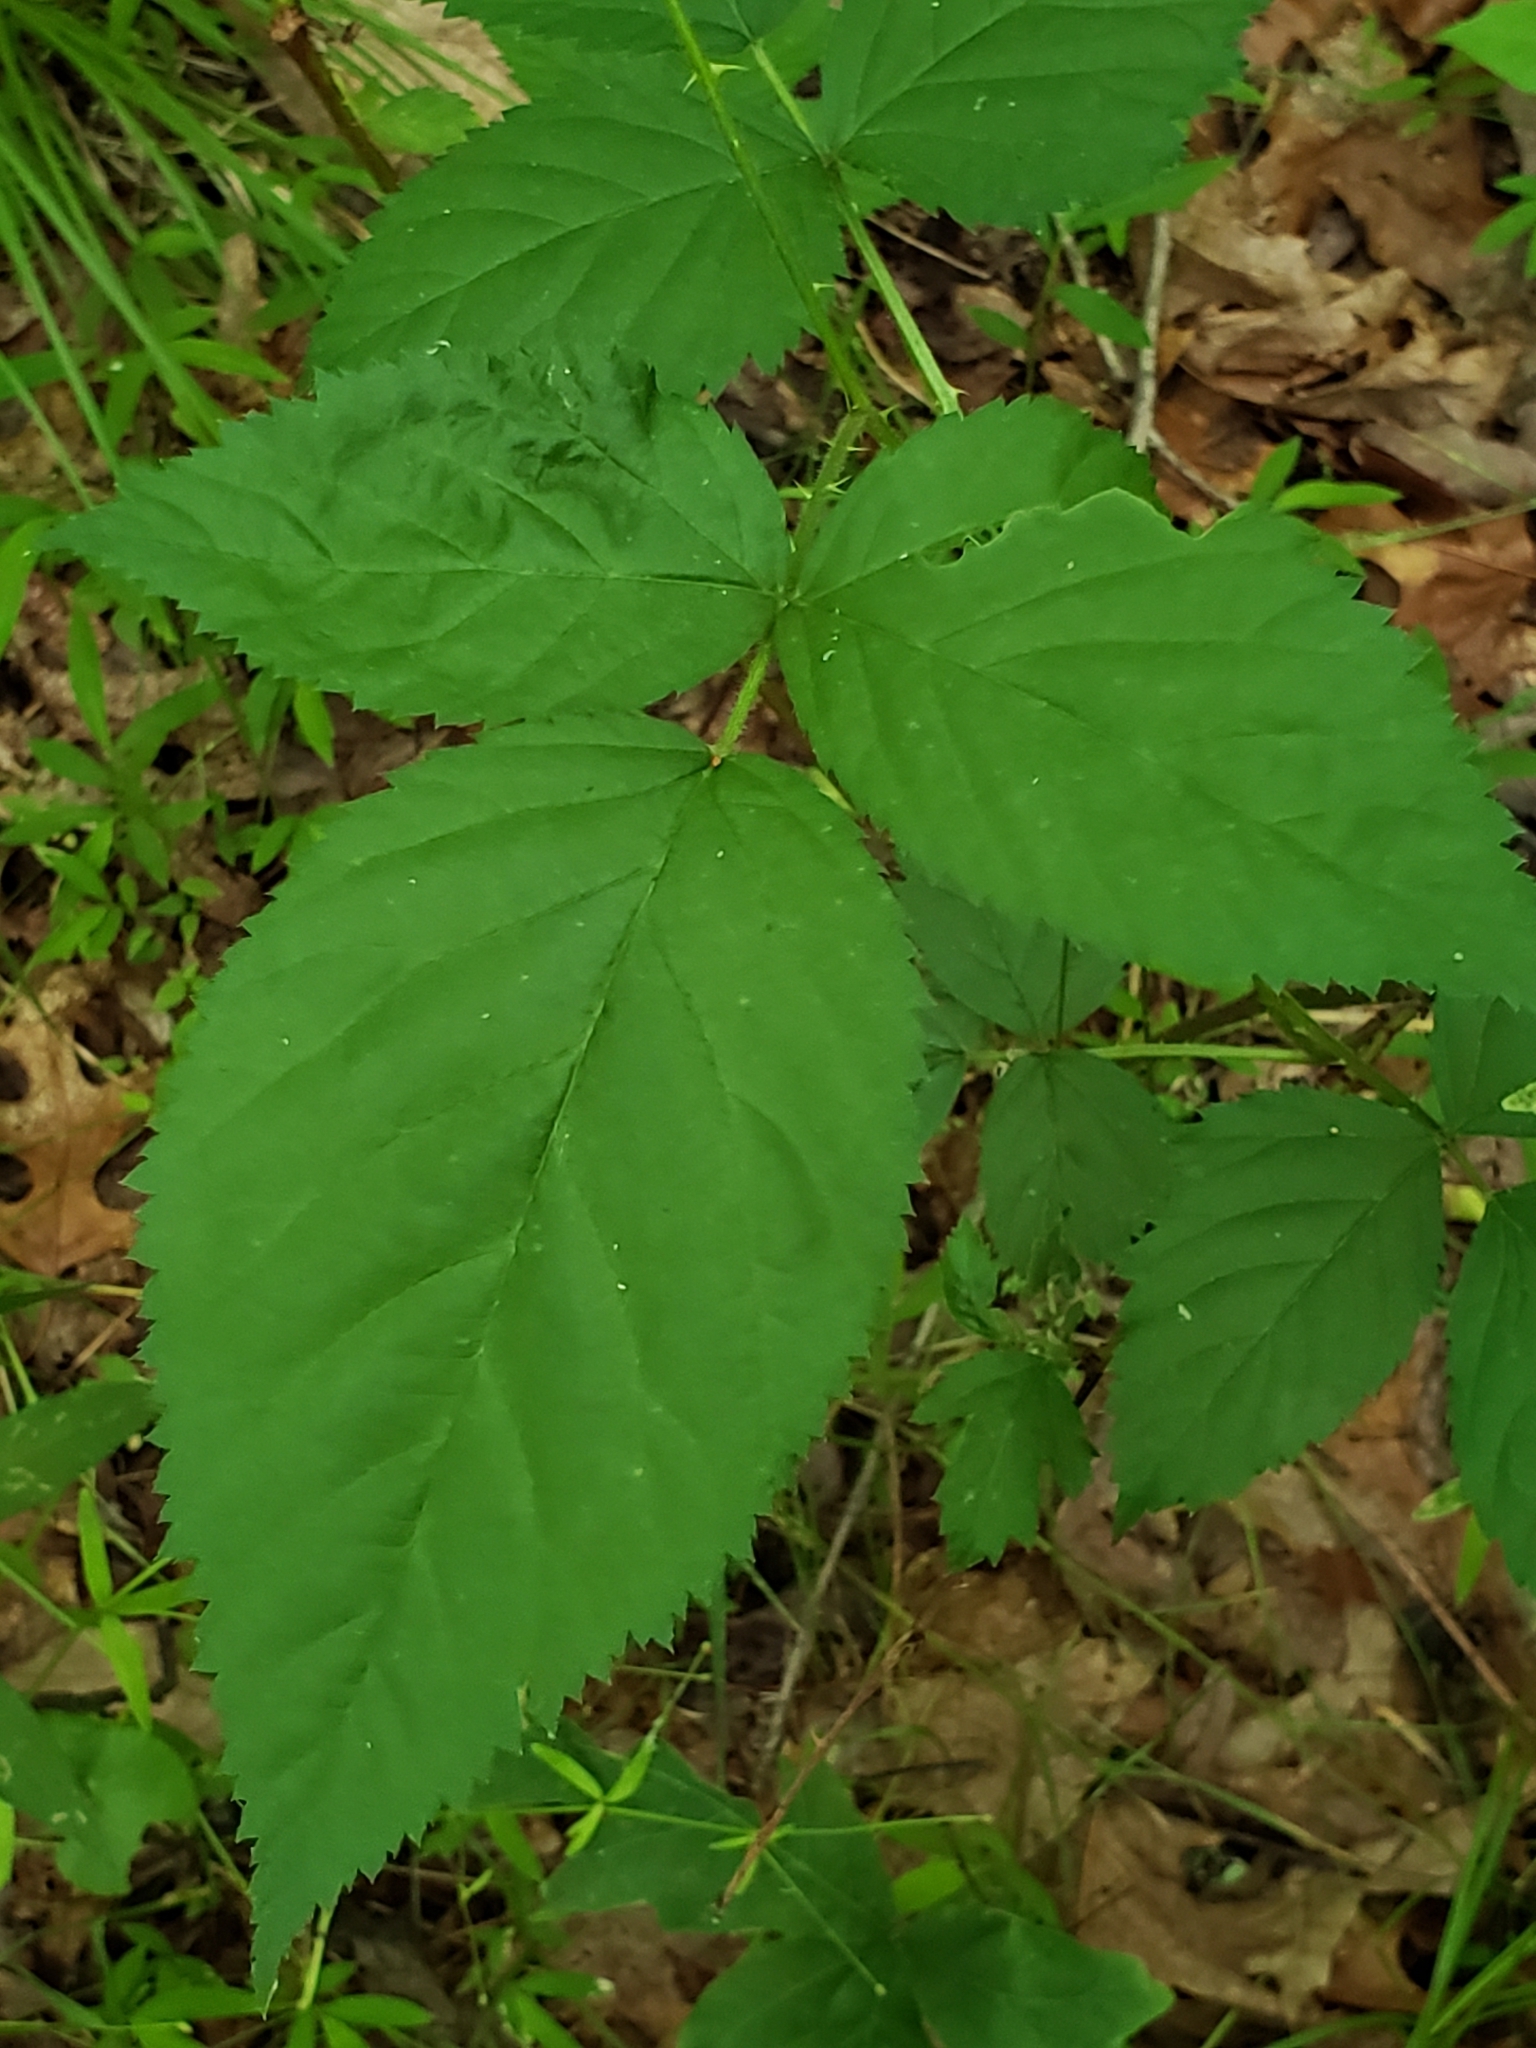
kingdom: Animalia
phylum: Arthropoda
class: Insecta
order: Diptera
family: Agromyzidae
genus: Agromyza
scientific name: Agromyza vockerothi
